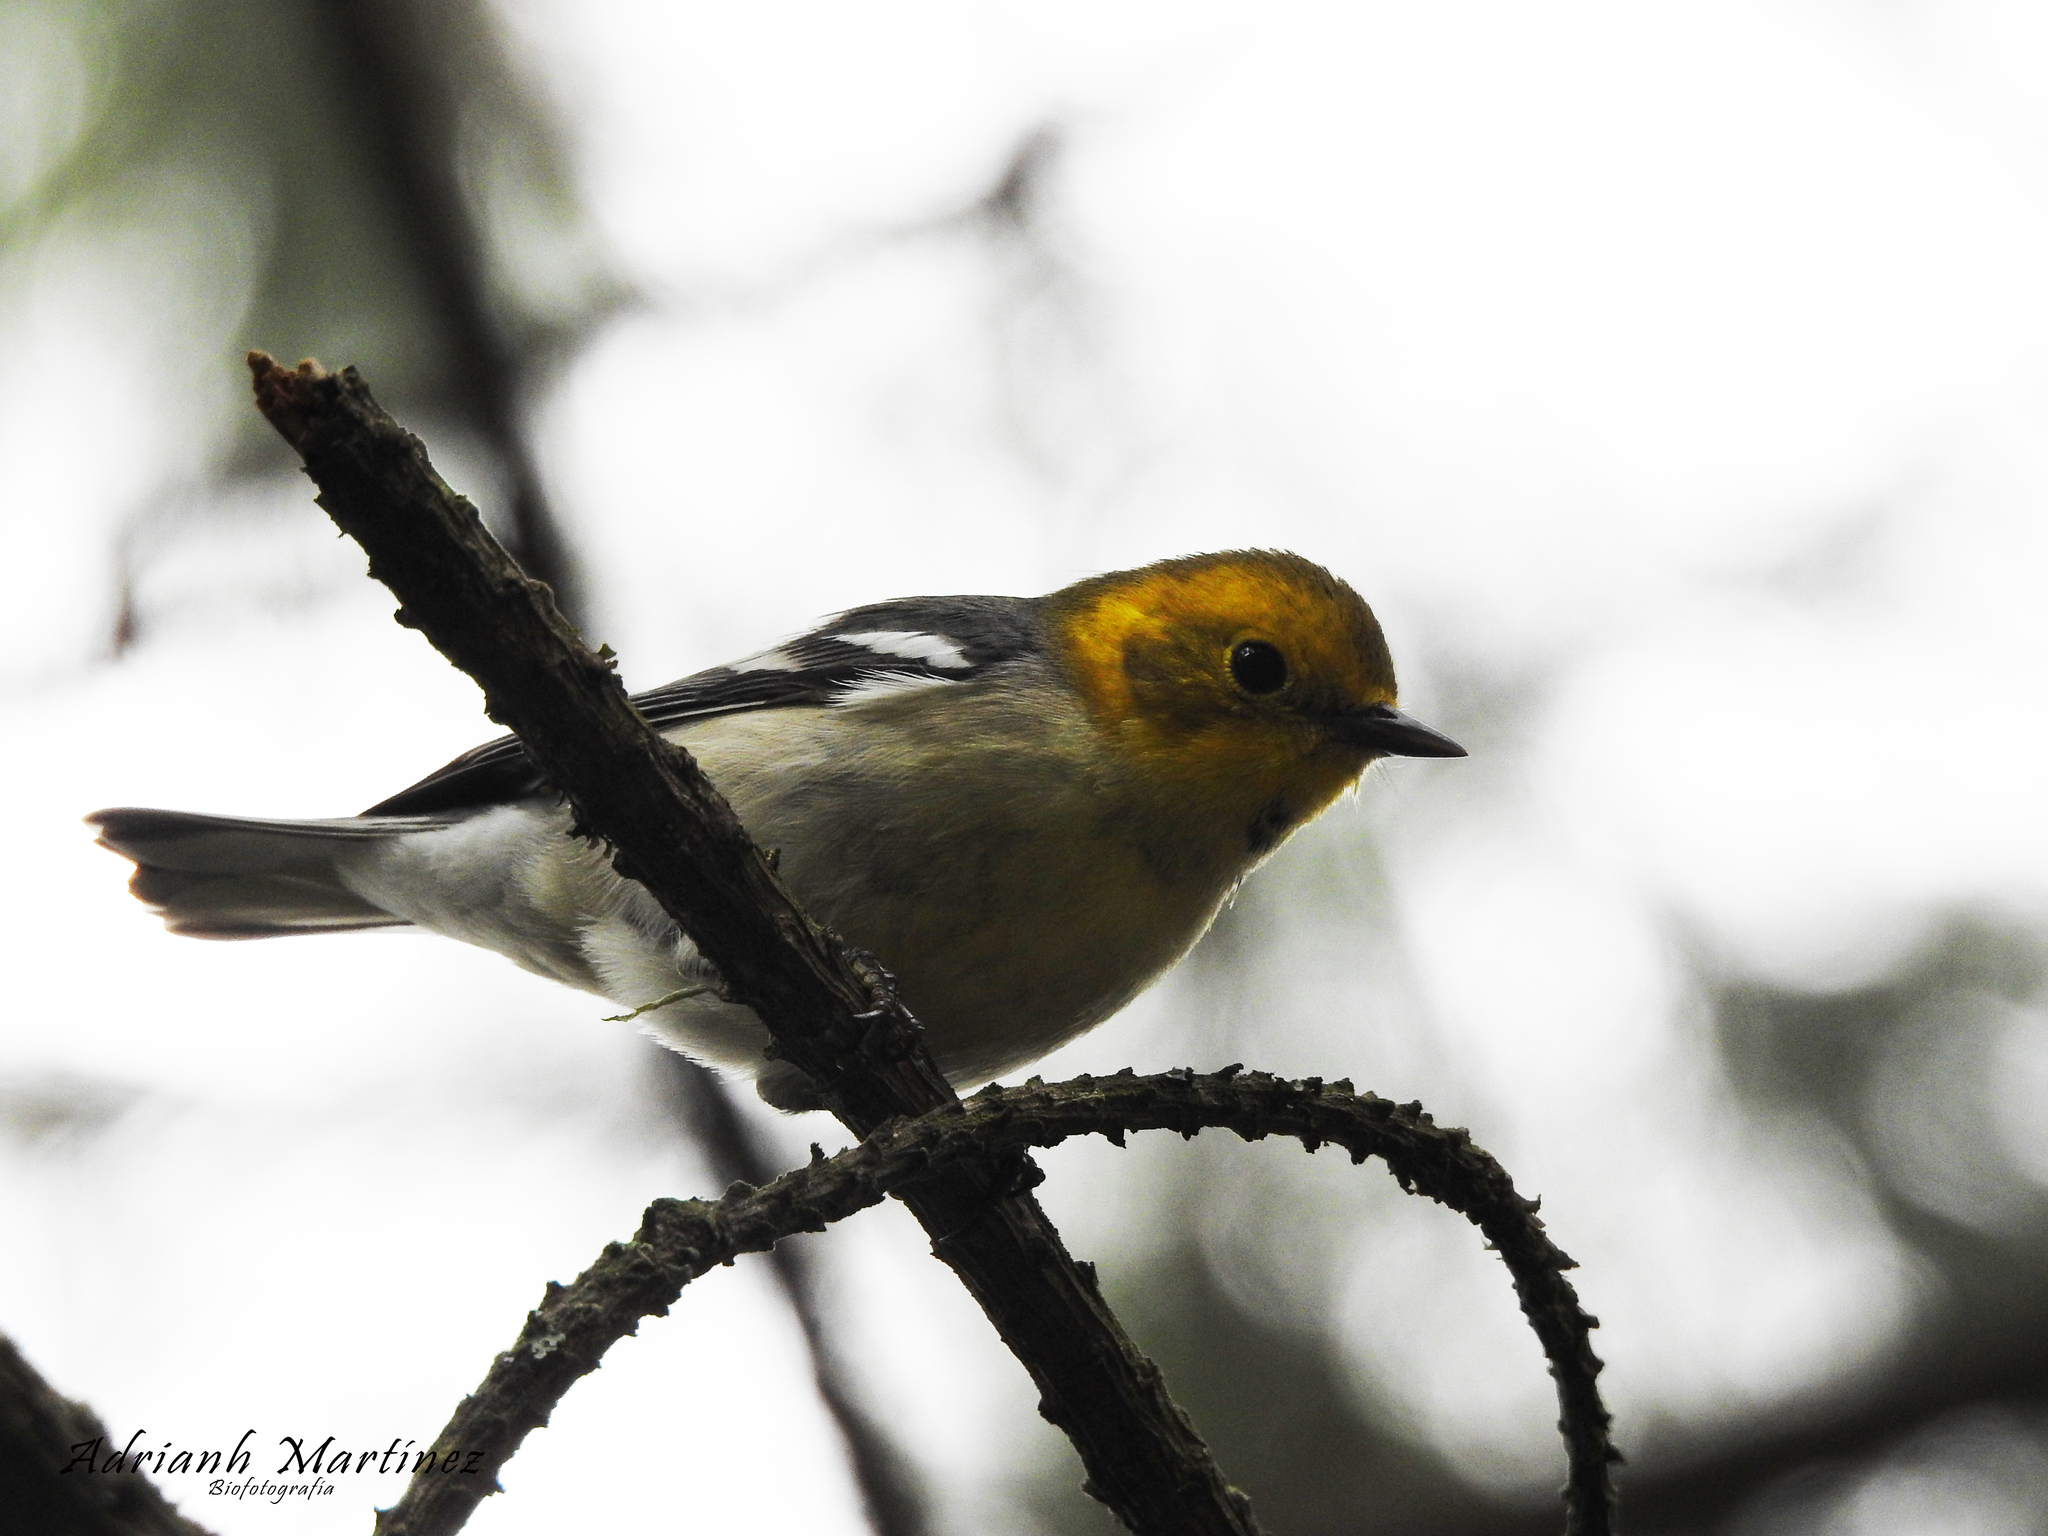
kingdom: Animalia
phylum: Chordata
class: Aves
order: Passeriformes
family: Parulidae
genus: Setophaga
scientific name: Setophaga occidentalis
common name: Hermit warbler
